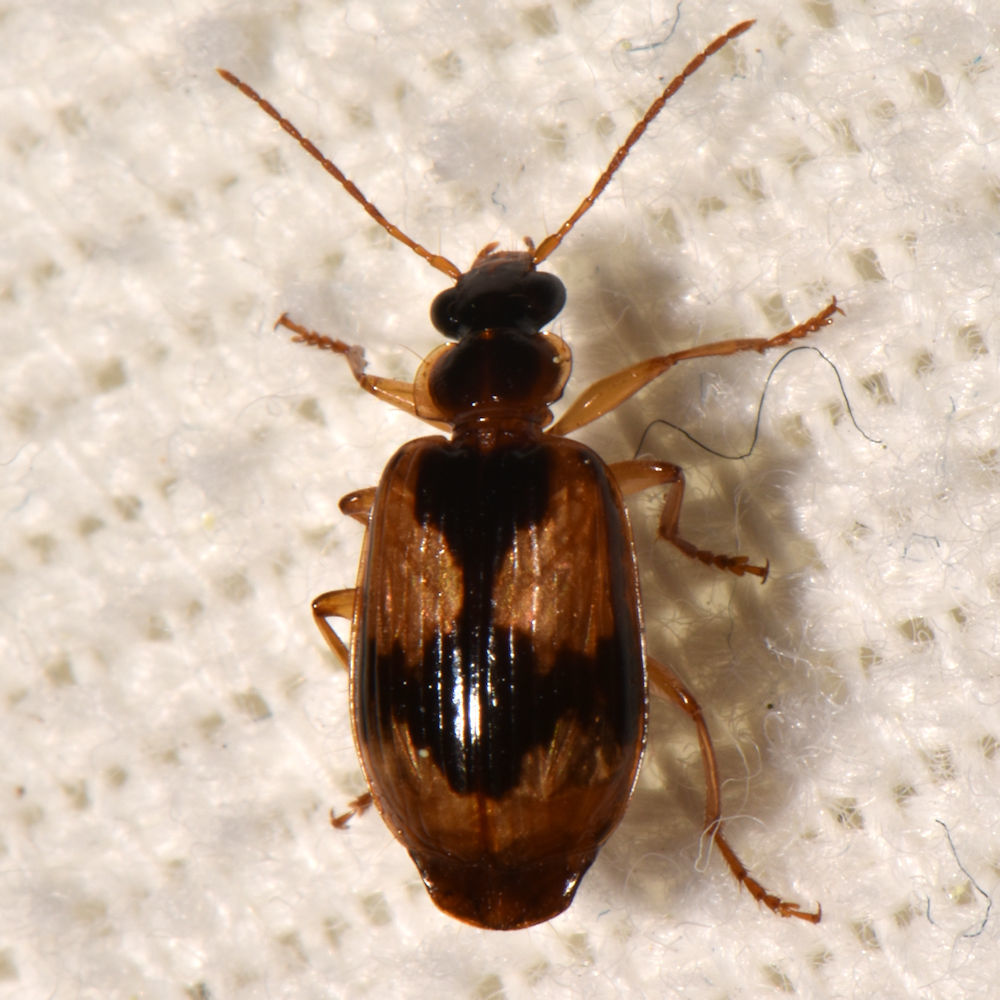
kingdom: Animalia
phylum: Arthropoda
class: Insecta
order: Coleoptera
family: Carabidae
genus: Lebia
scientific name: Lebia fuscata
